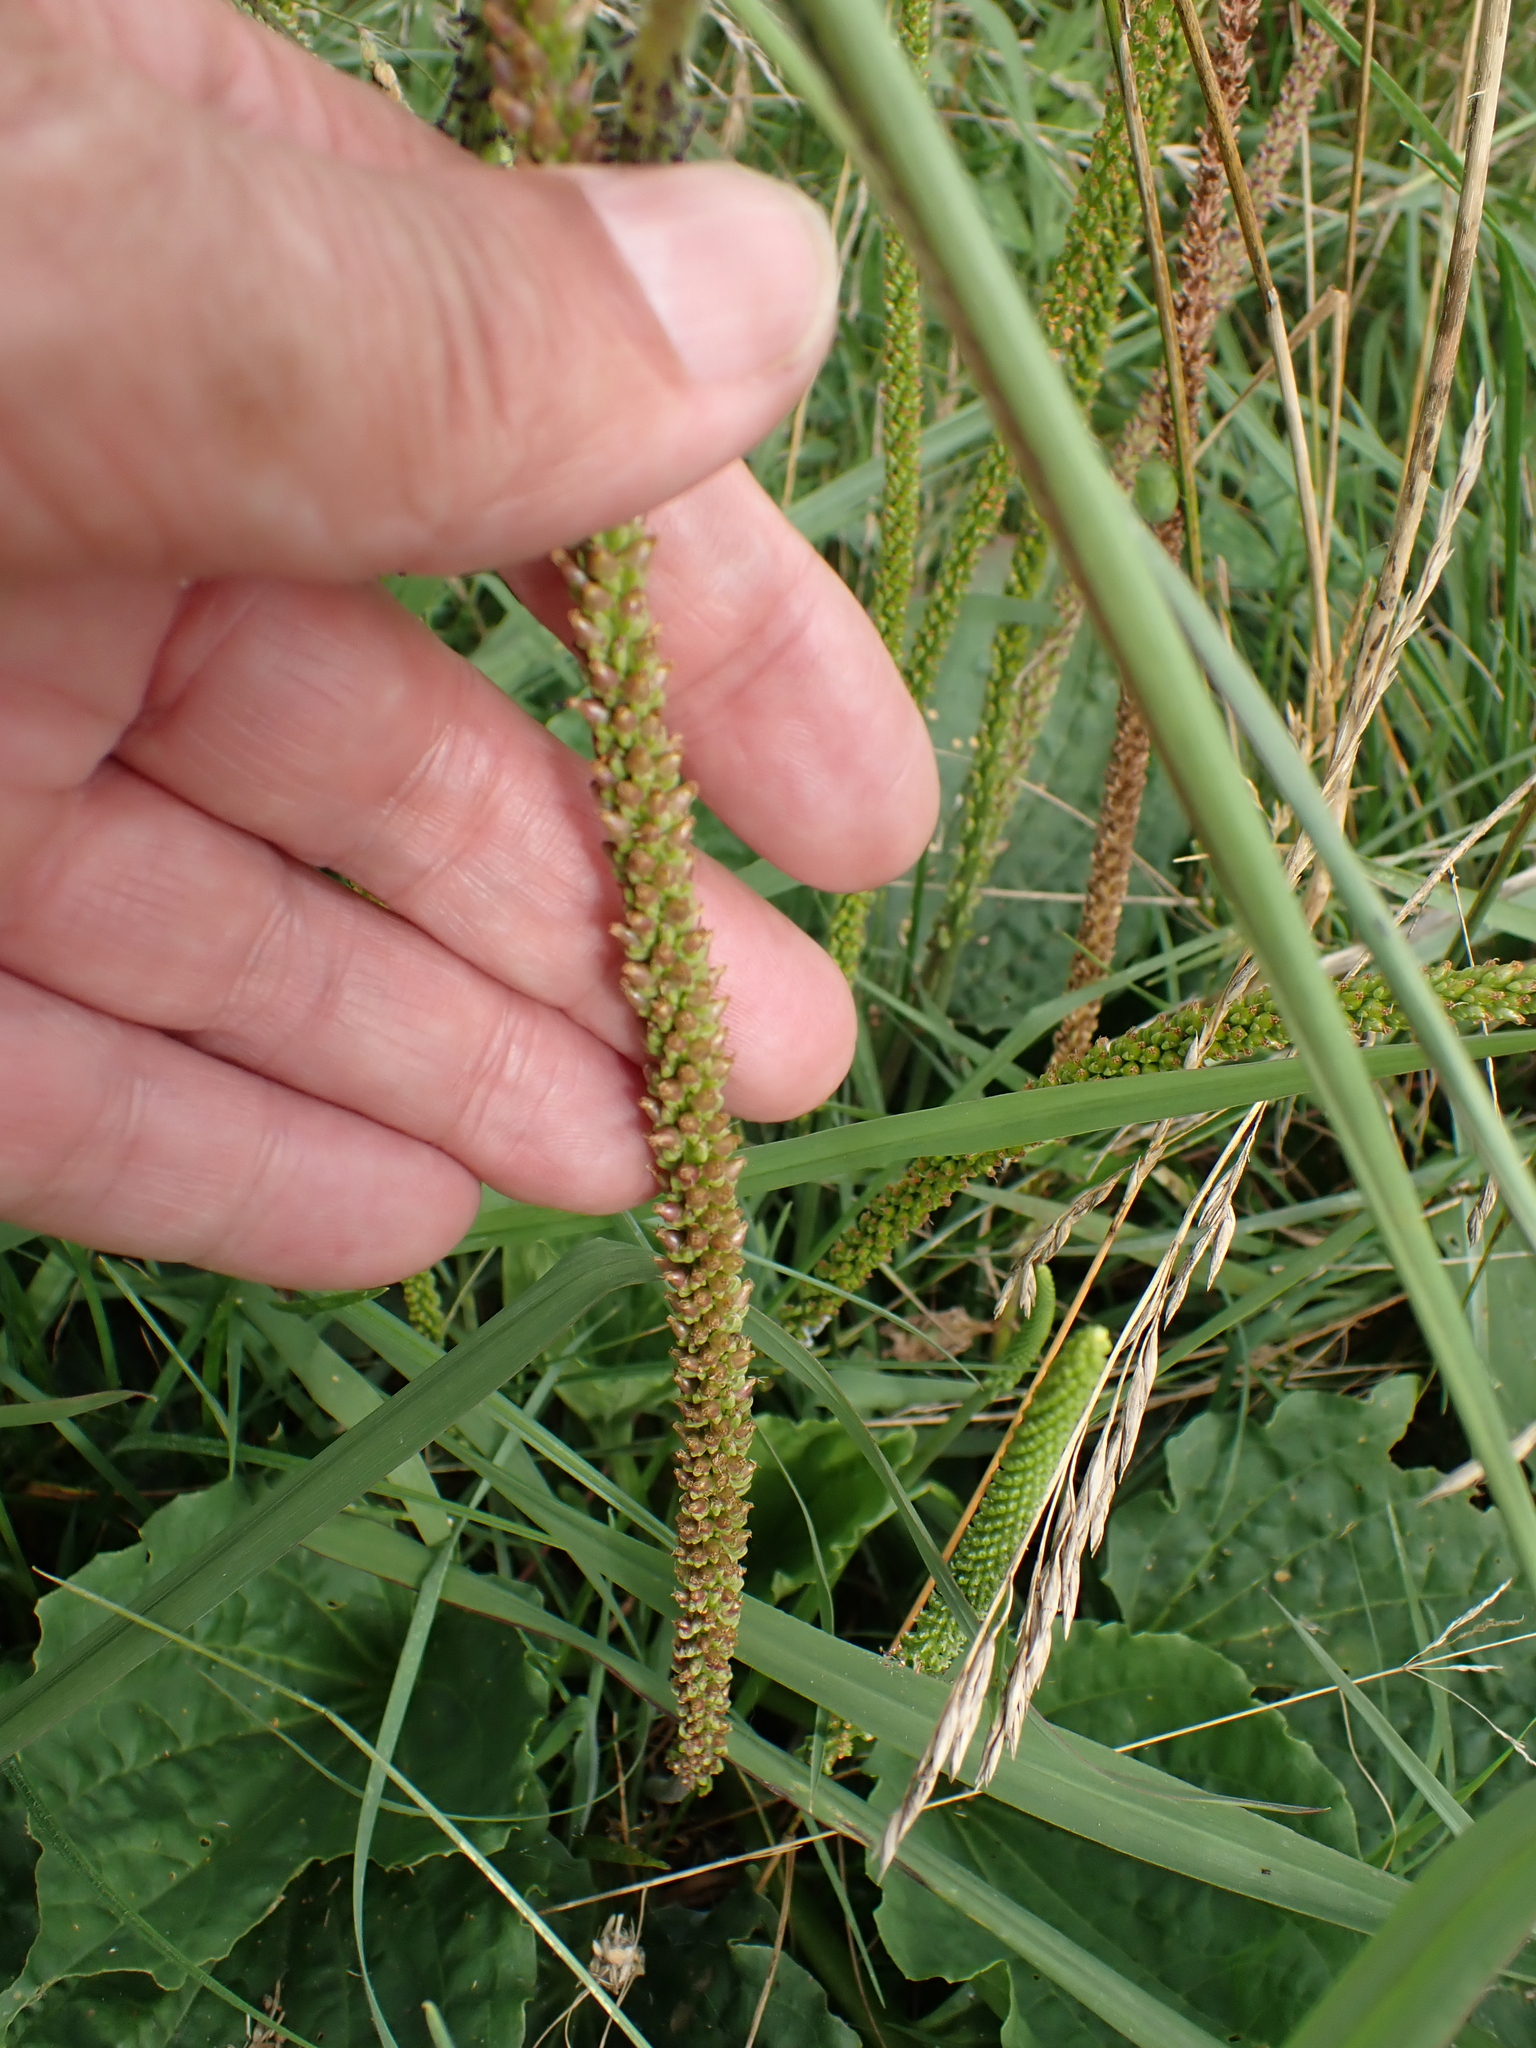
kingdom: Plantae
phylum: Tracheophyta
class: Magnoliopsida
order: Lamiales
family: Plantaginaceae
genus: Plantago
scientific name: Plantago major
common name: Common plantain
